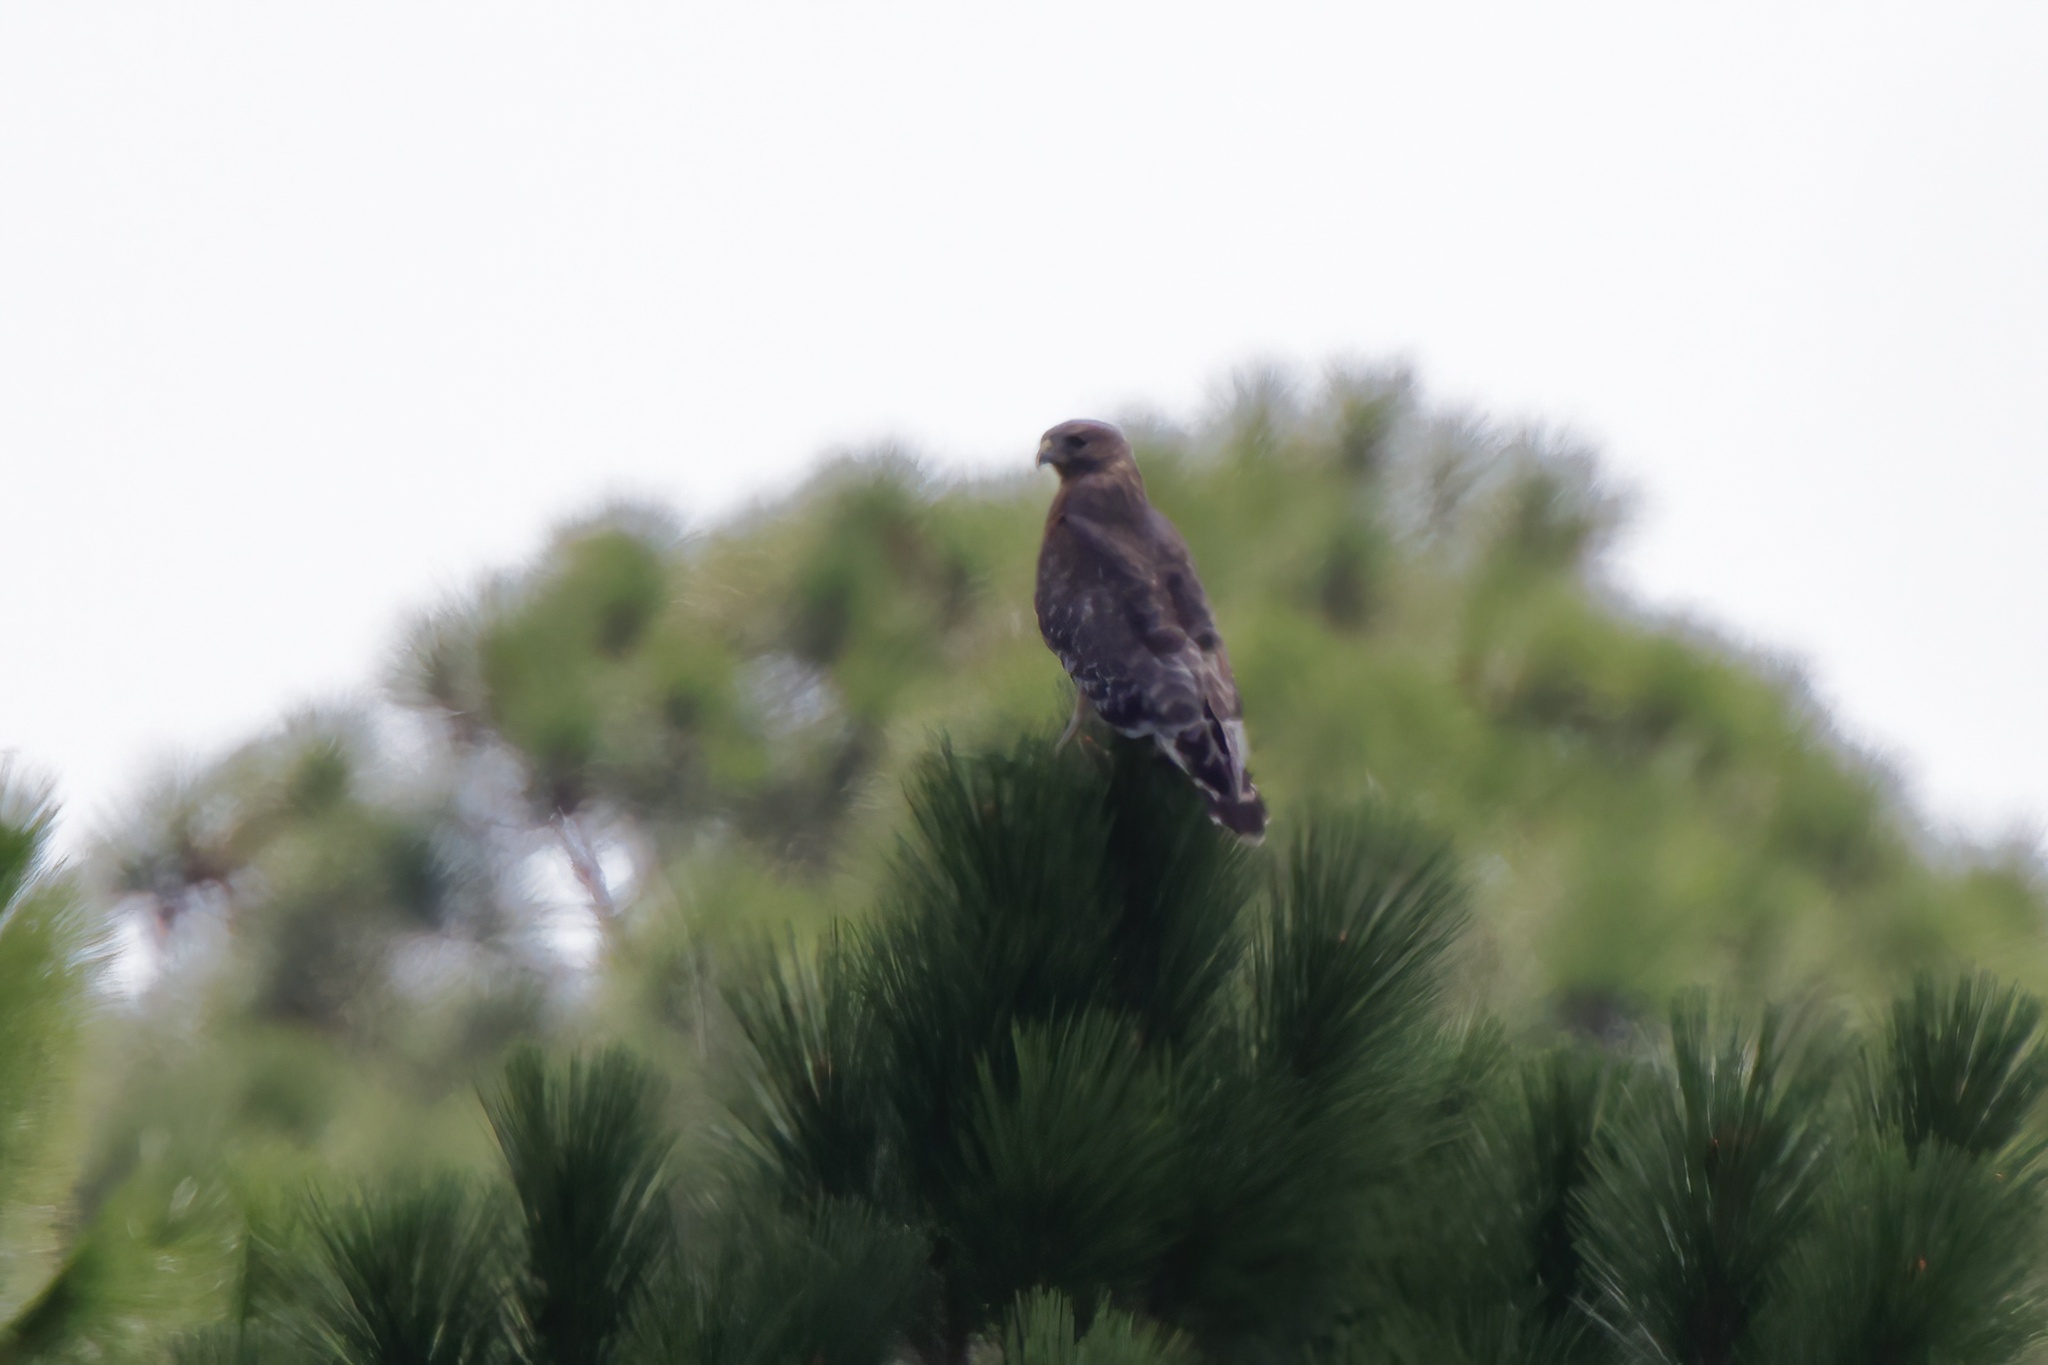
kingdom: Animalia
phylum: Chordata
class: Aves
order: Accipitriformes
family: Accipitridae
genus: Buteo
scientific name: Buteo lineatus
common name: Red-shouldered hawk
